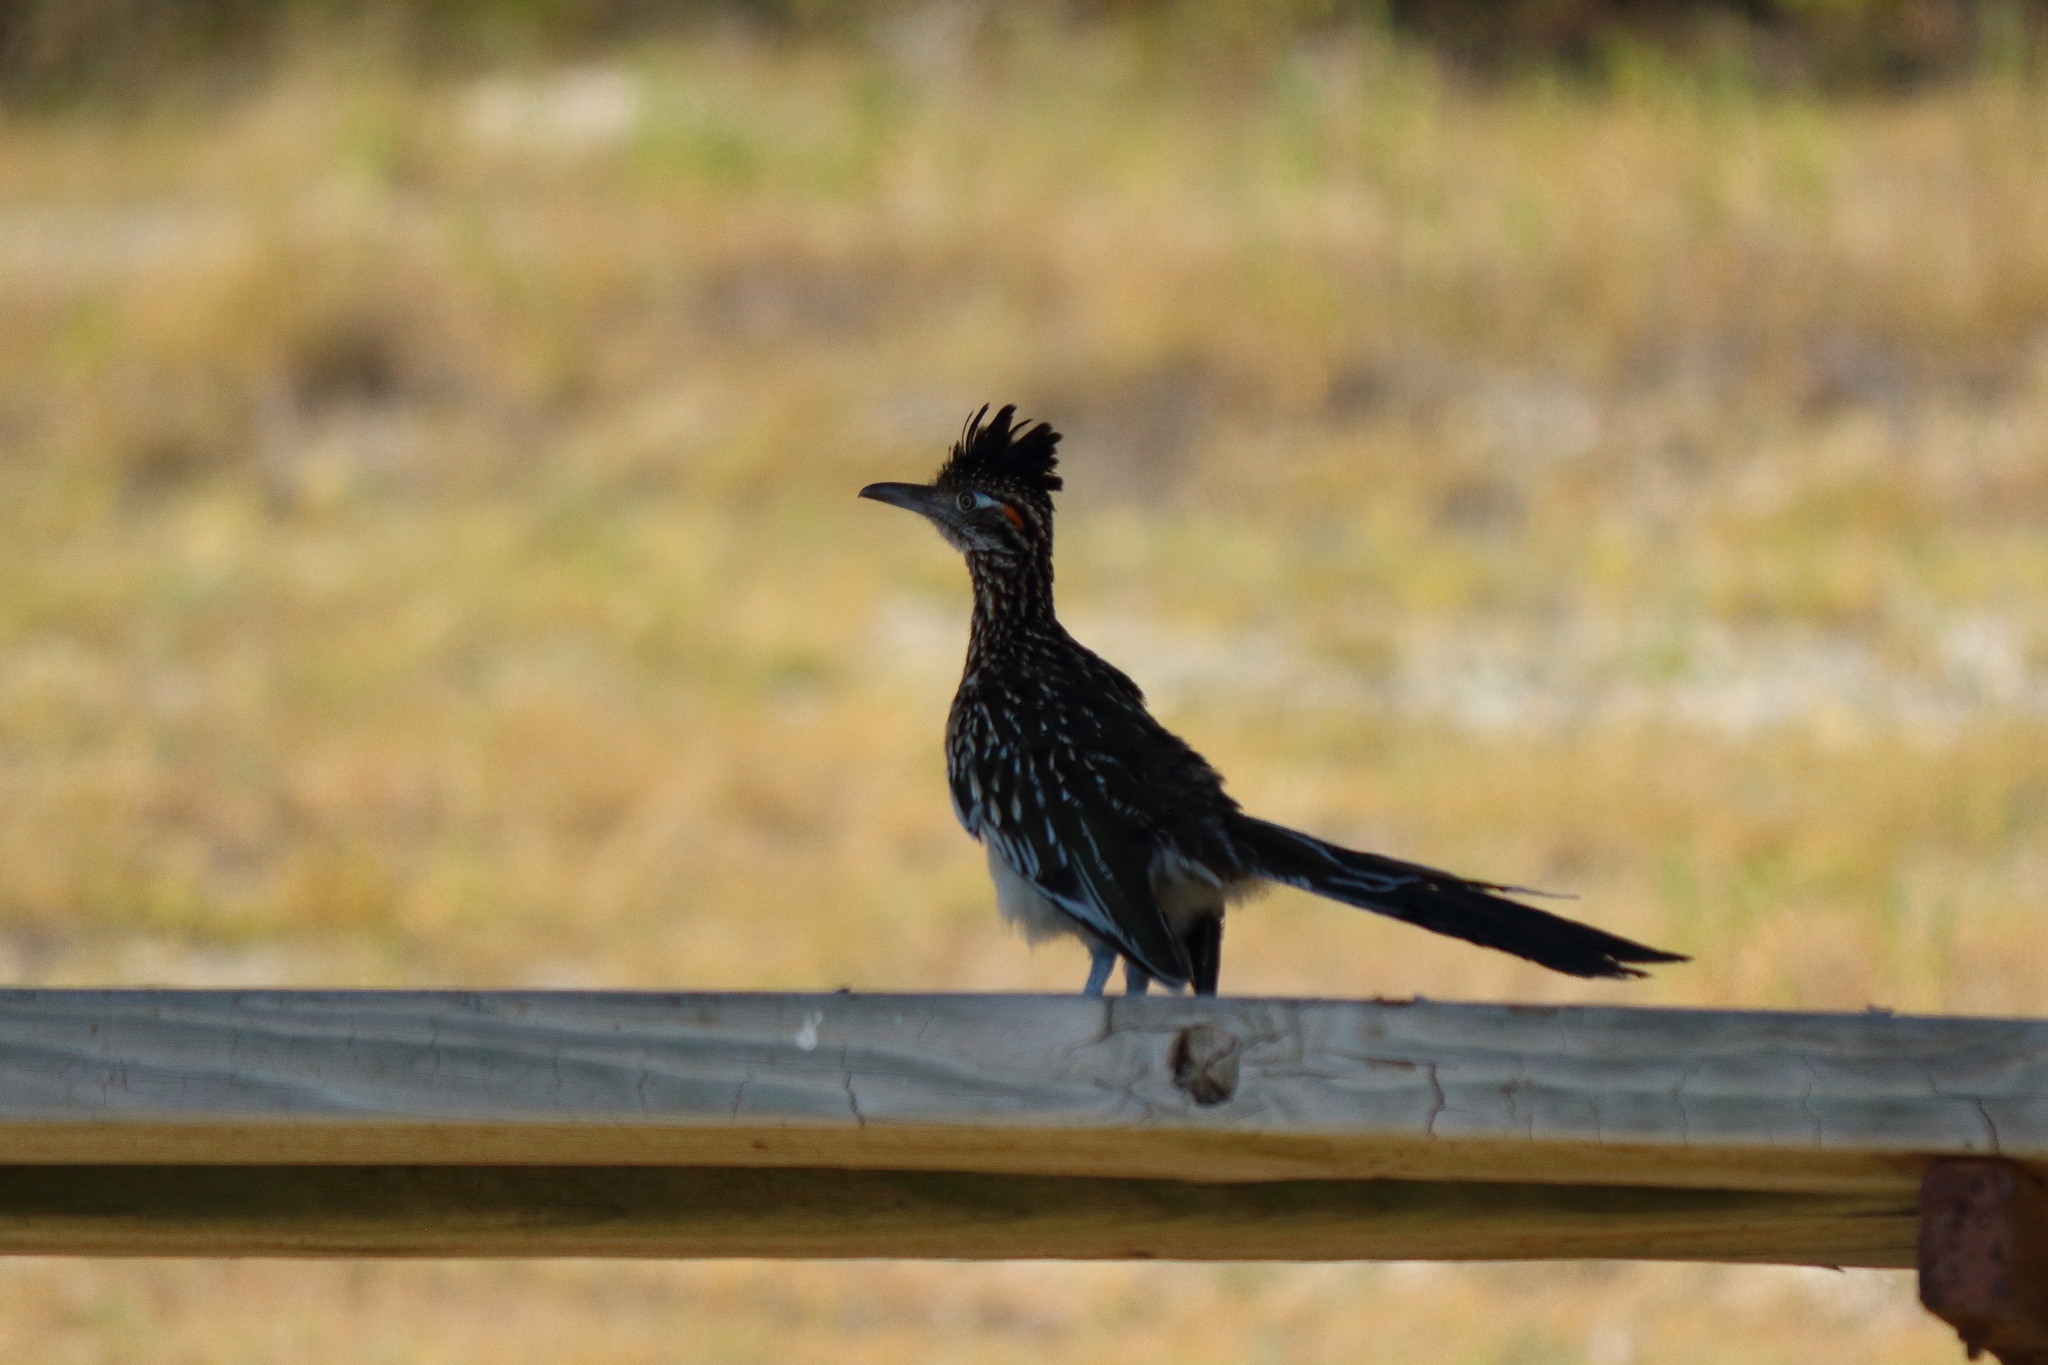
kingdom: Animalia
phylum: Chordata
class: Aves
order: Cuculiformes
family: Cuculidae
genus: Geococcyx
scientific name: Geococcyx californianus
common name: Greater roadrunner
